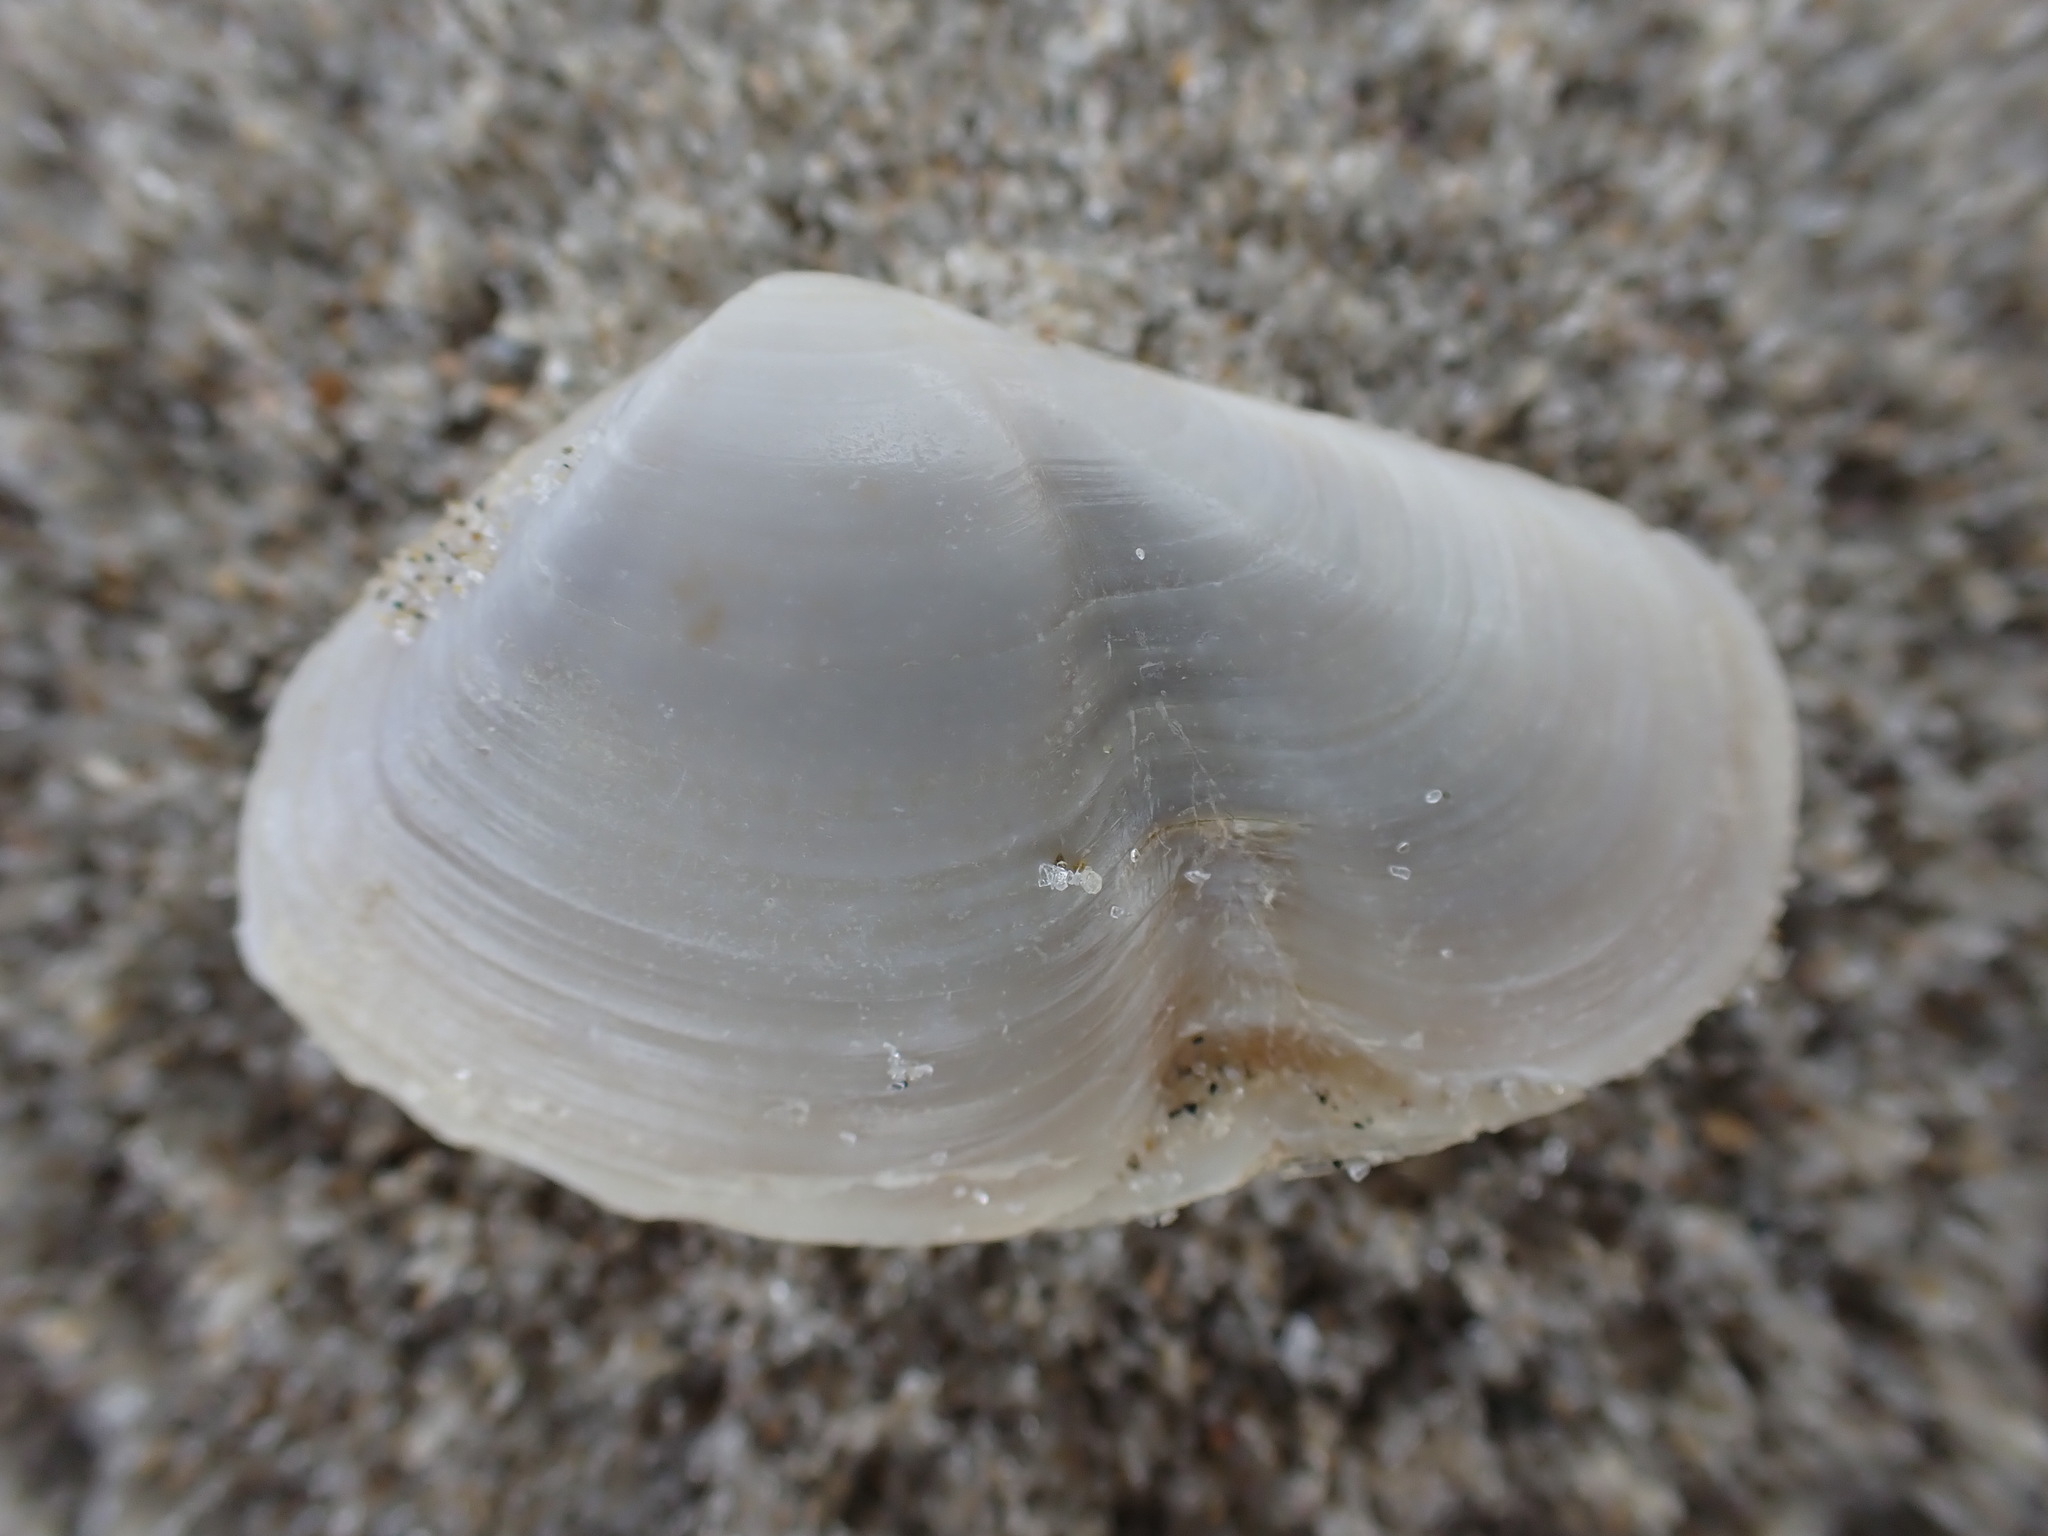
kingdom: Animalia
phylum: Mollusca
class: Bivalvia
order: Venerida
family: Mesodesmatidae
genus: Paphies
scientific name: Paphies subtriangulata
